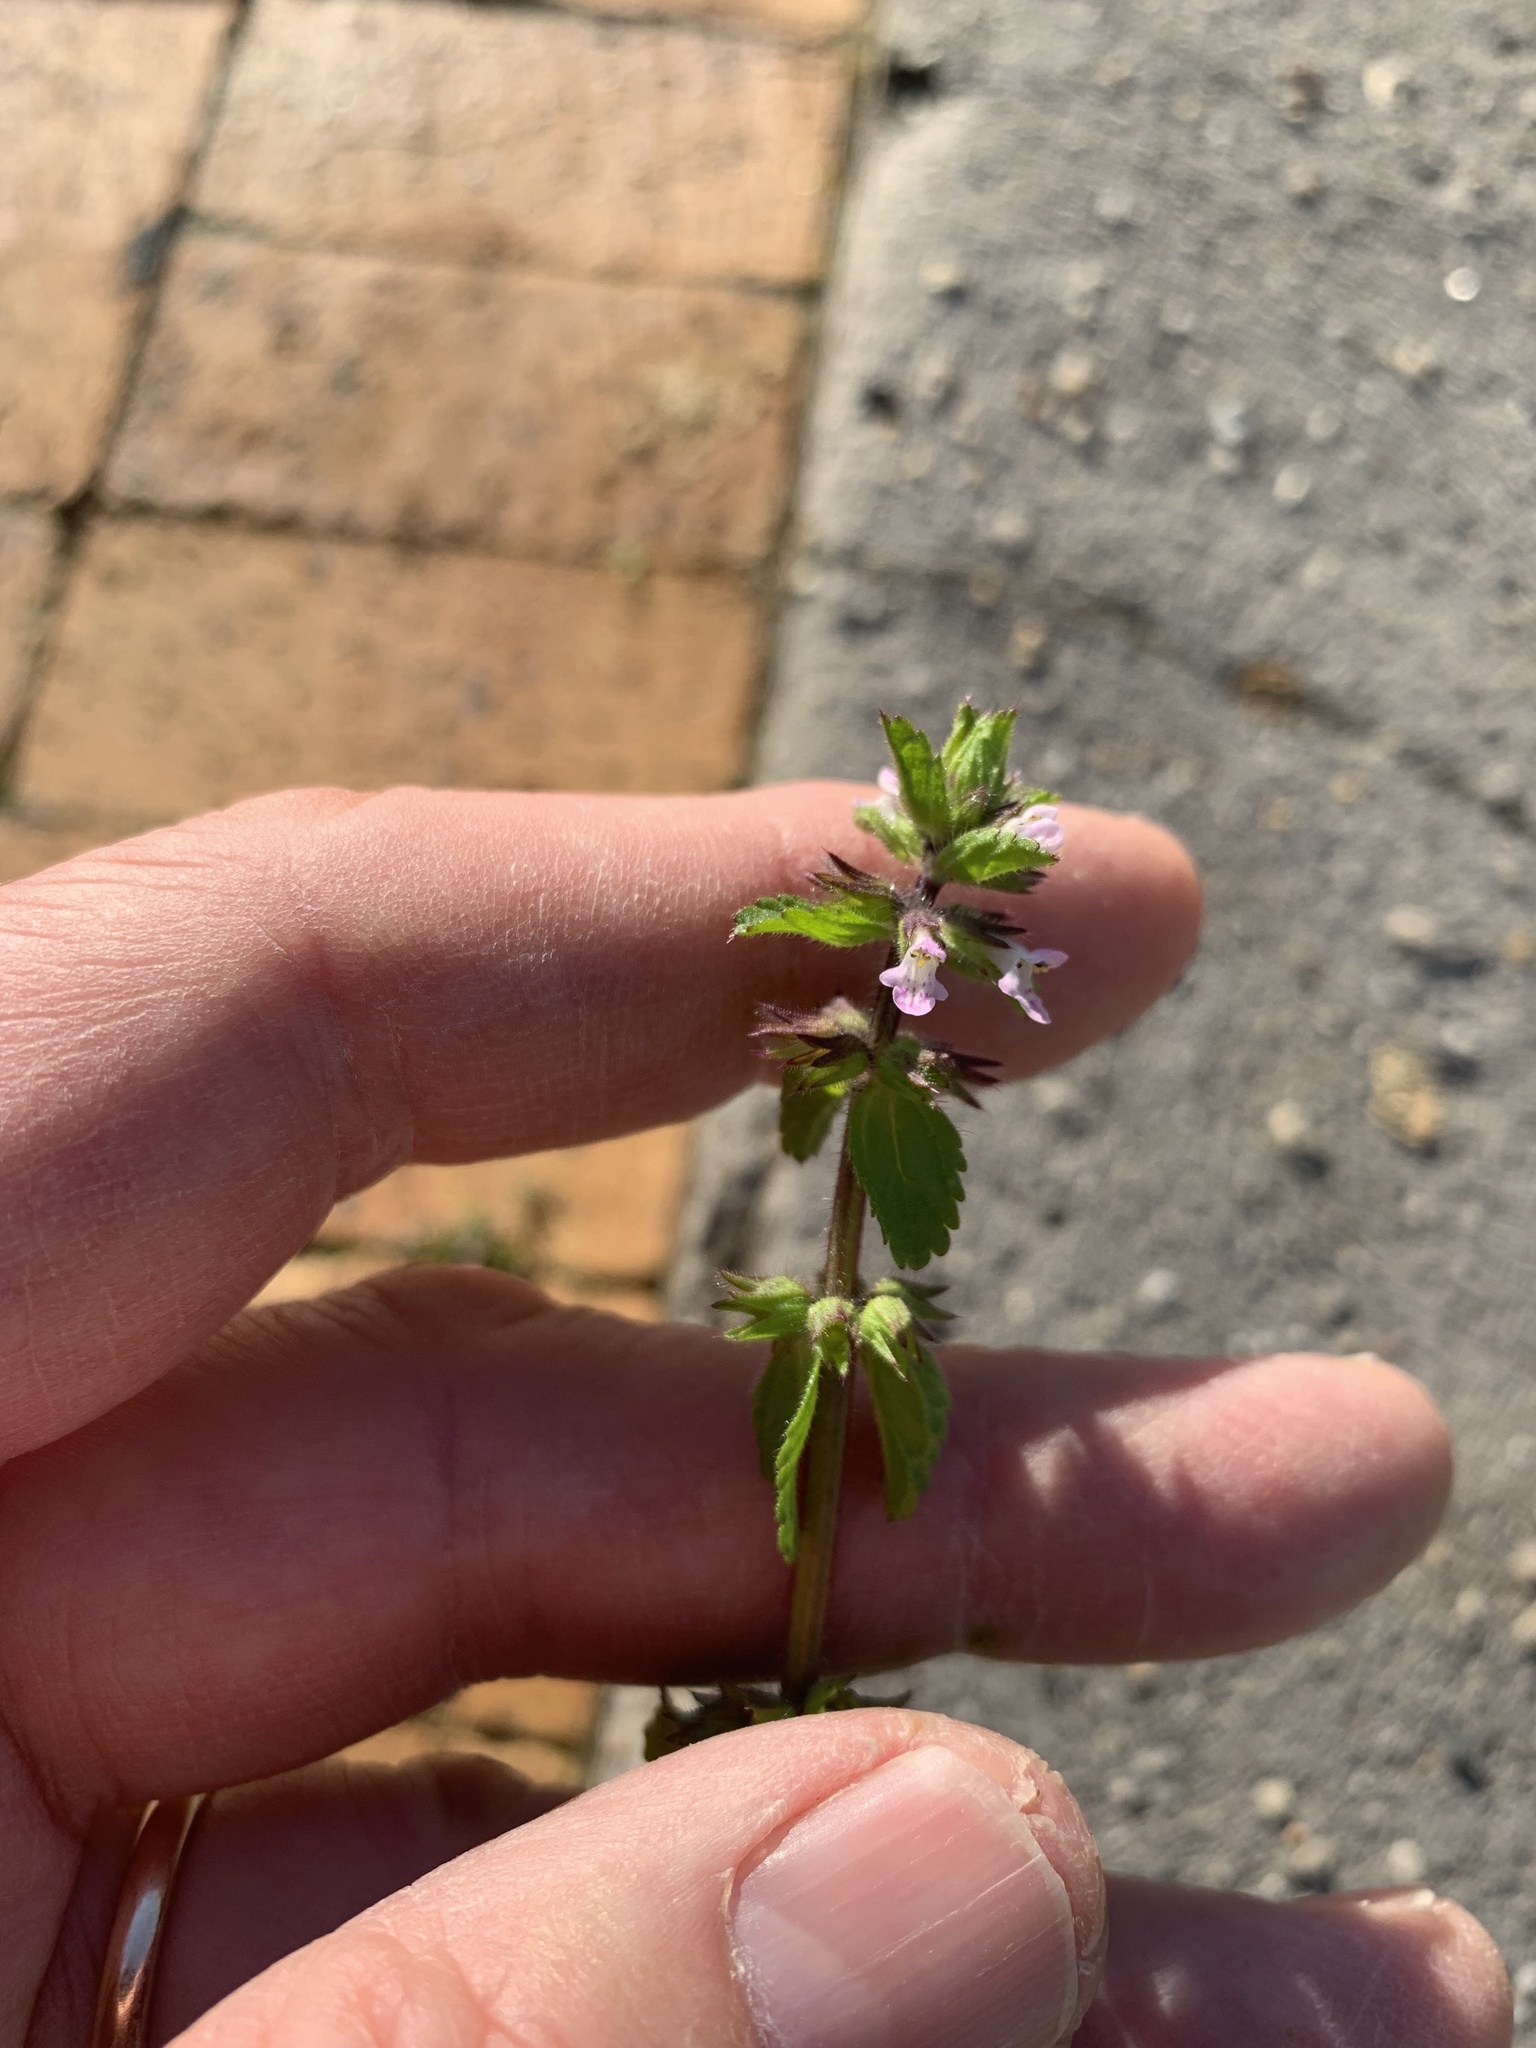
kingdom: Plantae
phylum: Tracheophyta
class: Magnoliopsida
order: Lamiales
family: Lamiaceae
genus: Stachys
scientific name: Stachys arvensis
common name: Field woundwort
